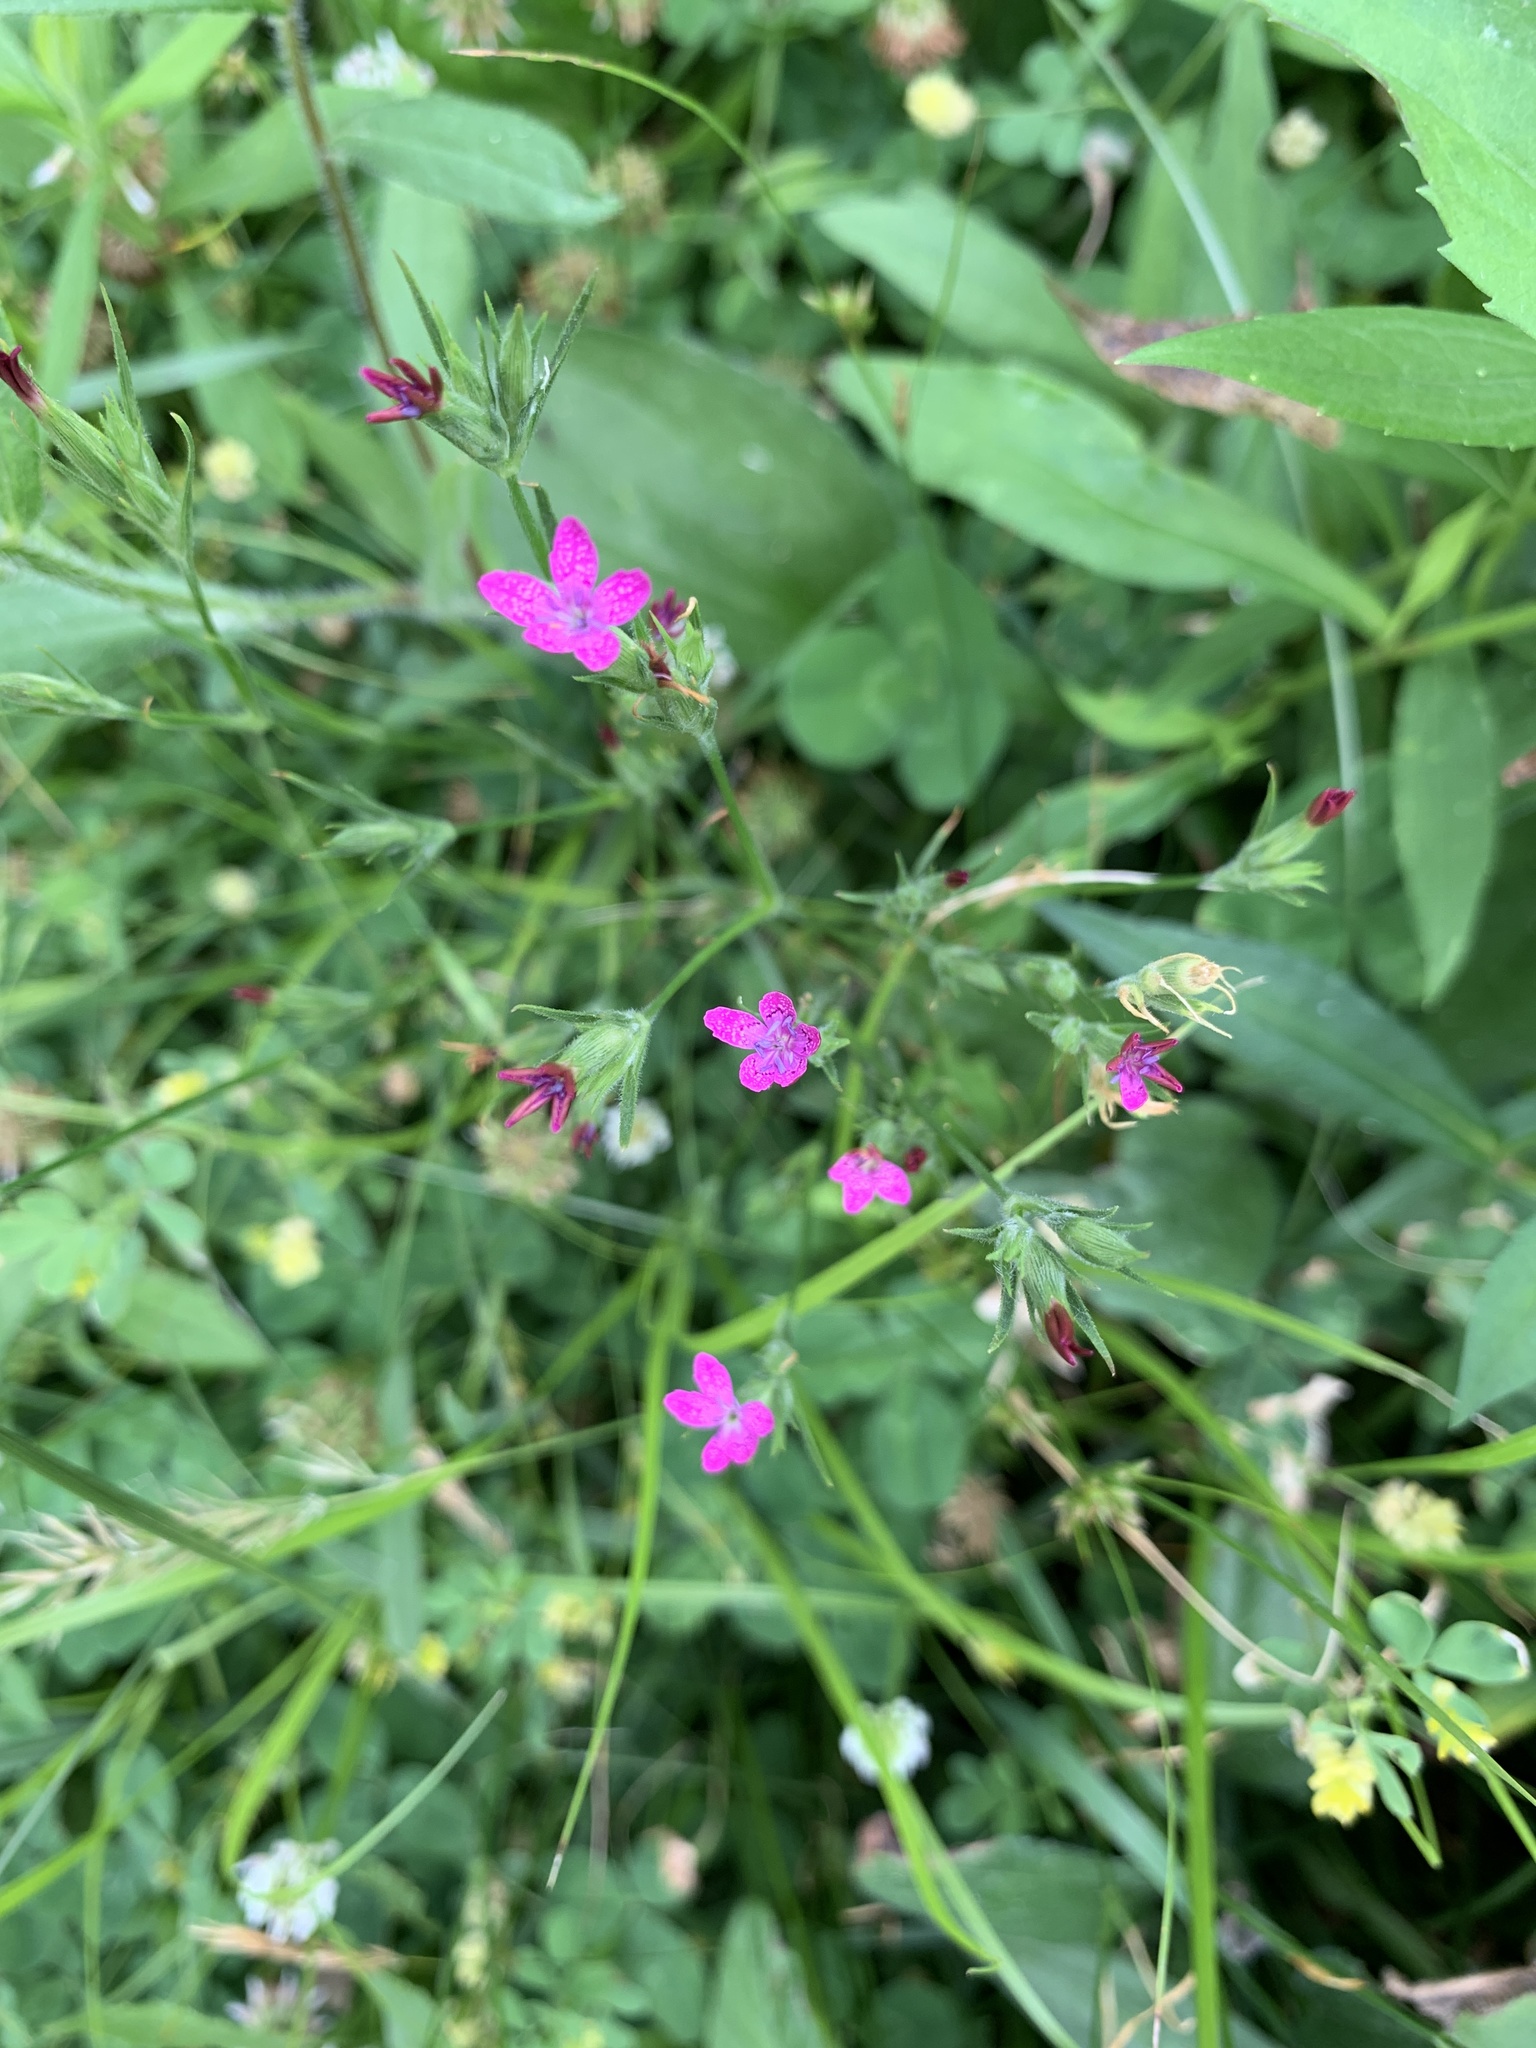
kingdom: Plantae
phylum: Tracheophyta
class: Magnoliopsida
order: Caryophyllales
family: Caryophyllaceae
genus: Dianthus
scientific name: Dianthus armeria
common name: Deptford pink
